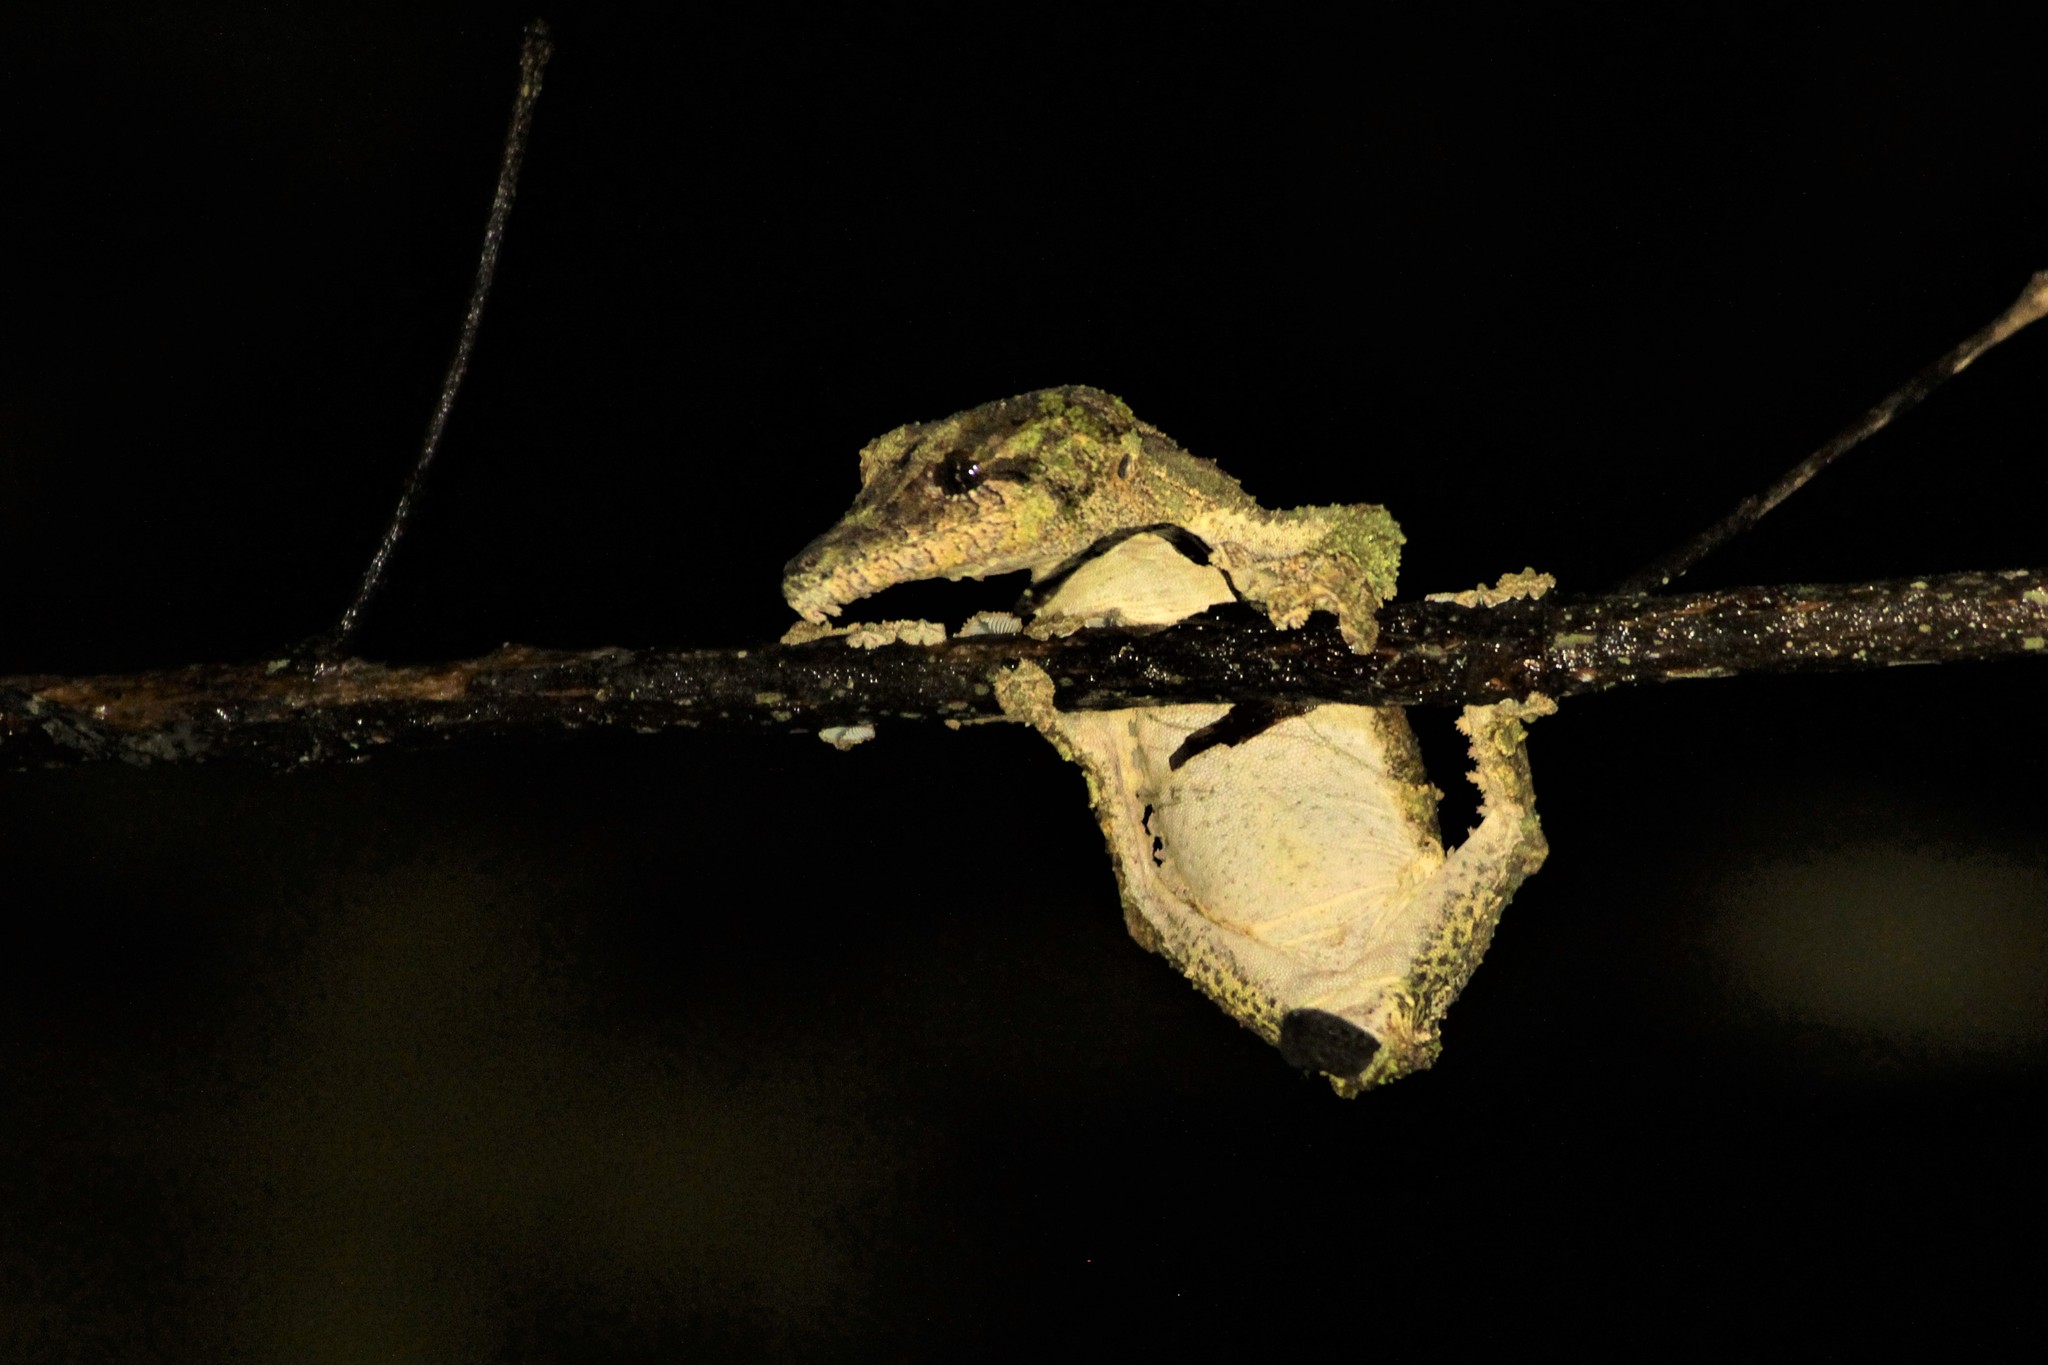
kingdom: Animalia
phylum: Chordata
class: Squamata
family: Gekkonidae
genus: Uroplatus
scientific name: Uroplatus sikorae
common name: Southern flat-tail gecko
